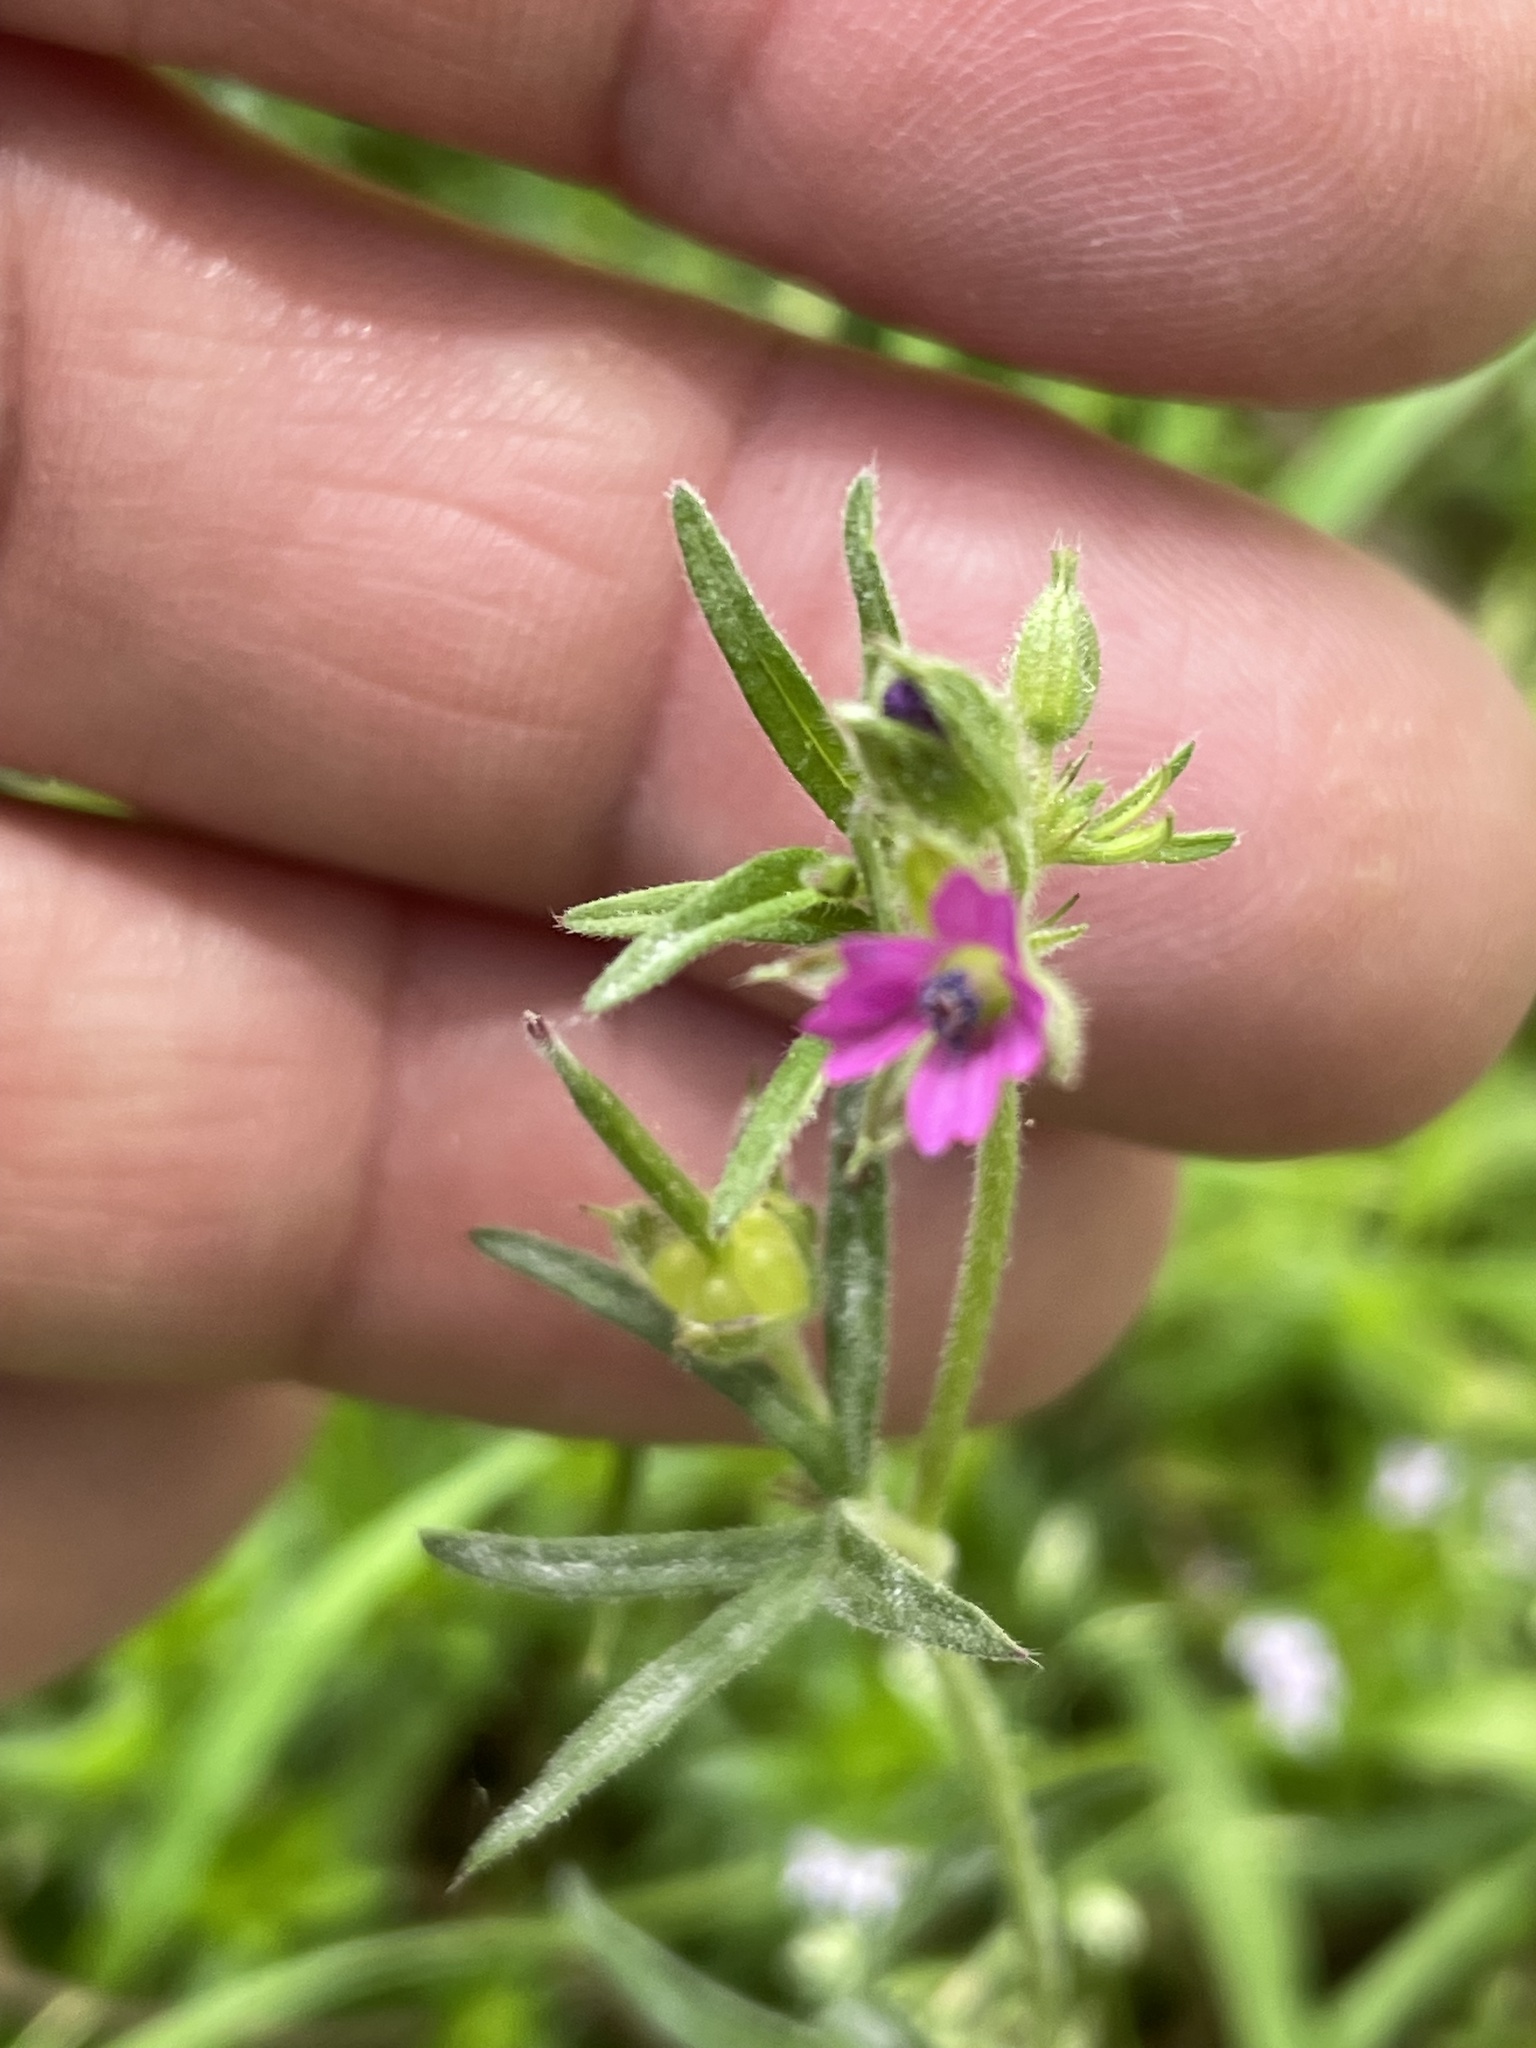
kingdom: Plantae
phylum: Tracheophyta
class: Magnoliopsida
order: Geraniales
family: Geraniaceae
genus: Geranium
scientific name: Geranium dissectum
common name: Cut-leaved crane's-bill
